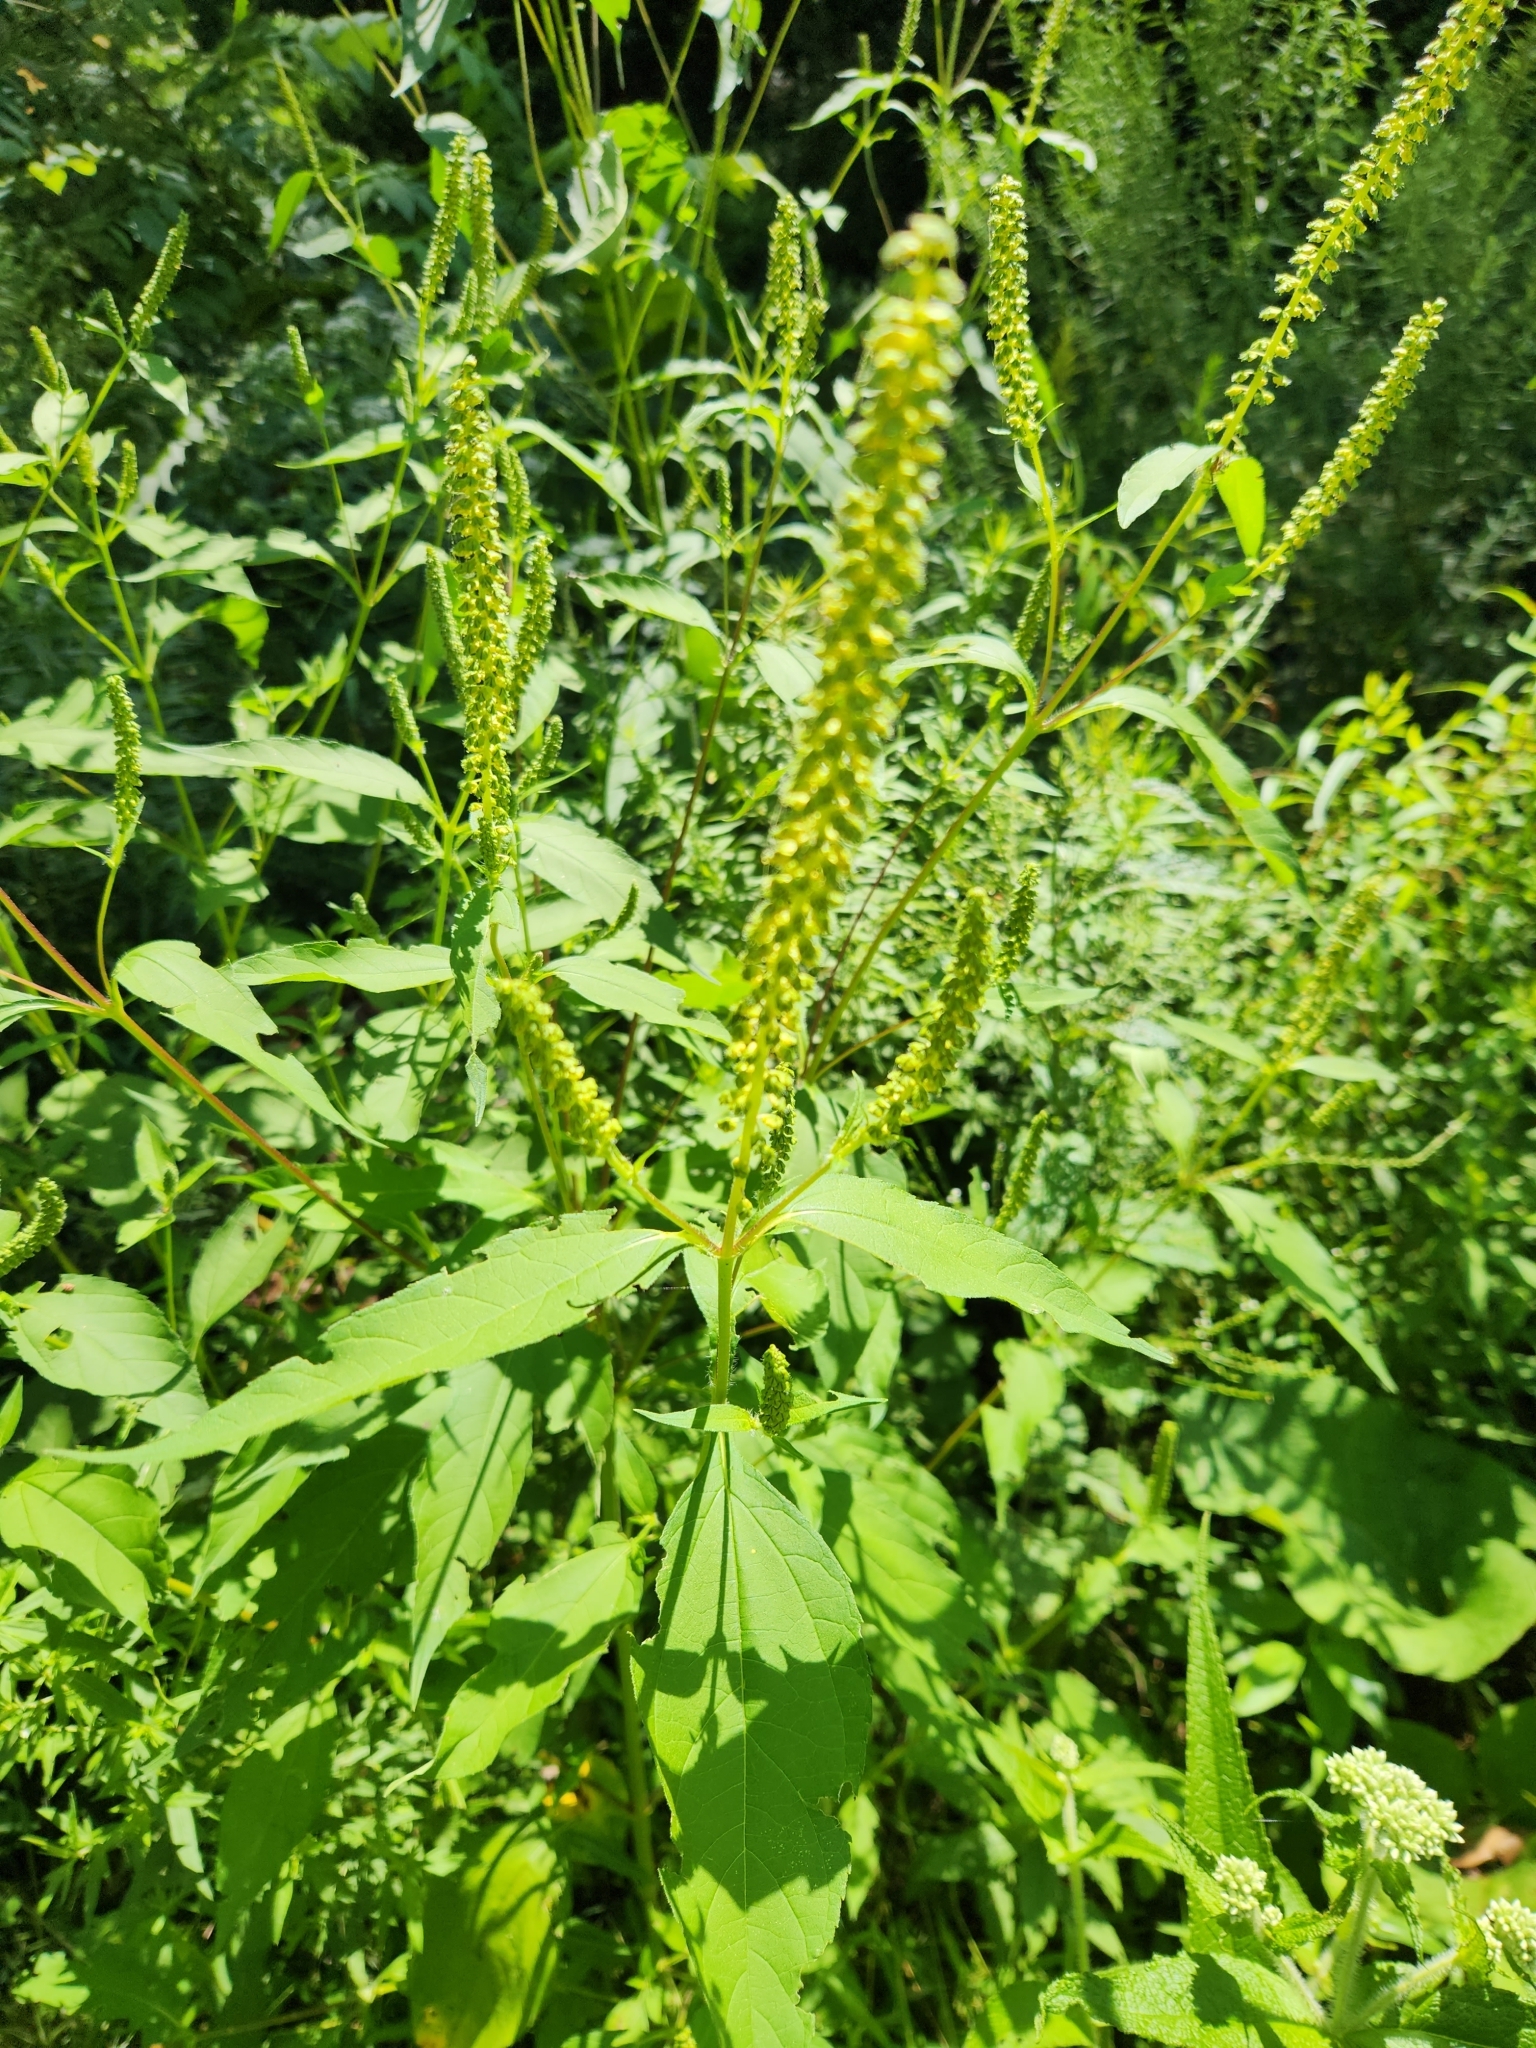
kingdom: Plantae
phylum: Tracheophyta
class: Magnoliopsida
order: Asterales
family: Asteraceae
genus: Ambrosia
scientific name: Ambrosia trifida
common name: Giant ragweed
